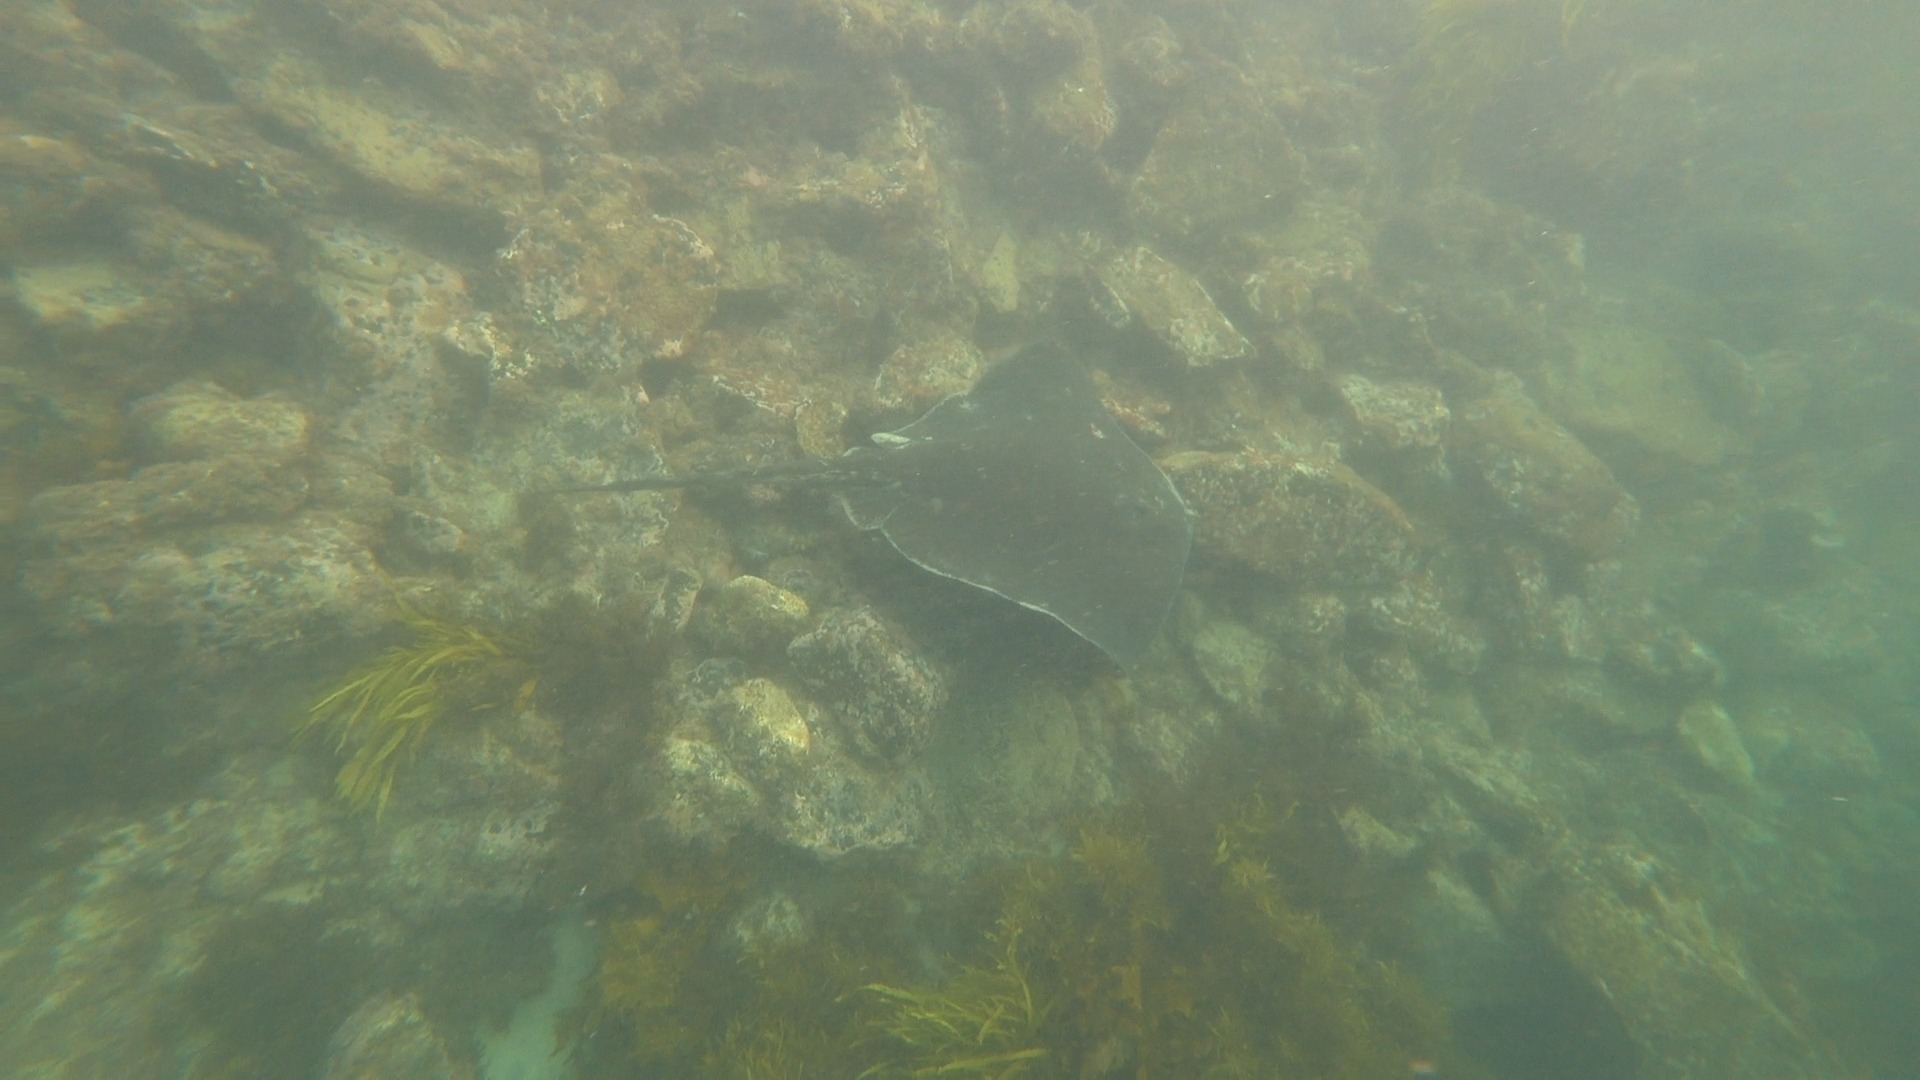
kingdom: Animalia
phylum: Chordata
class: Elasmobranchii
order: Myliobatiformes
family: Dasyatidae
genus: Bathytoshia
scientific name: Bathytoshia brevicaudata
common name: Short-tail stingray
